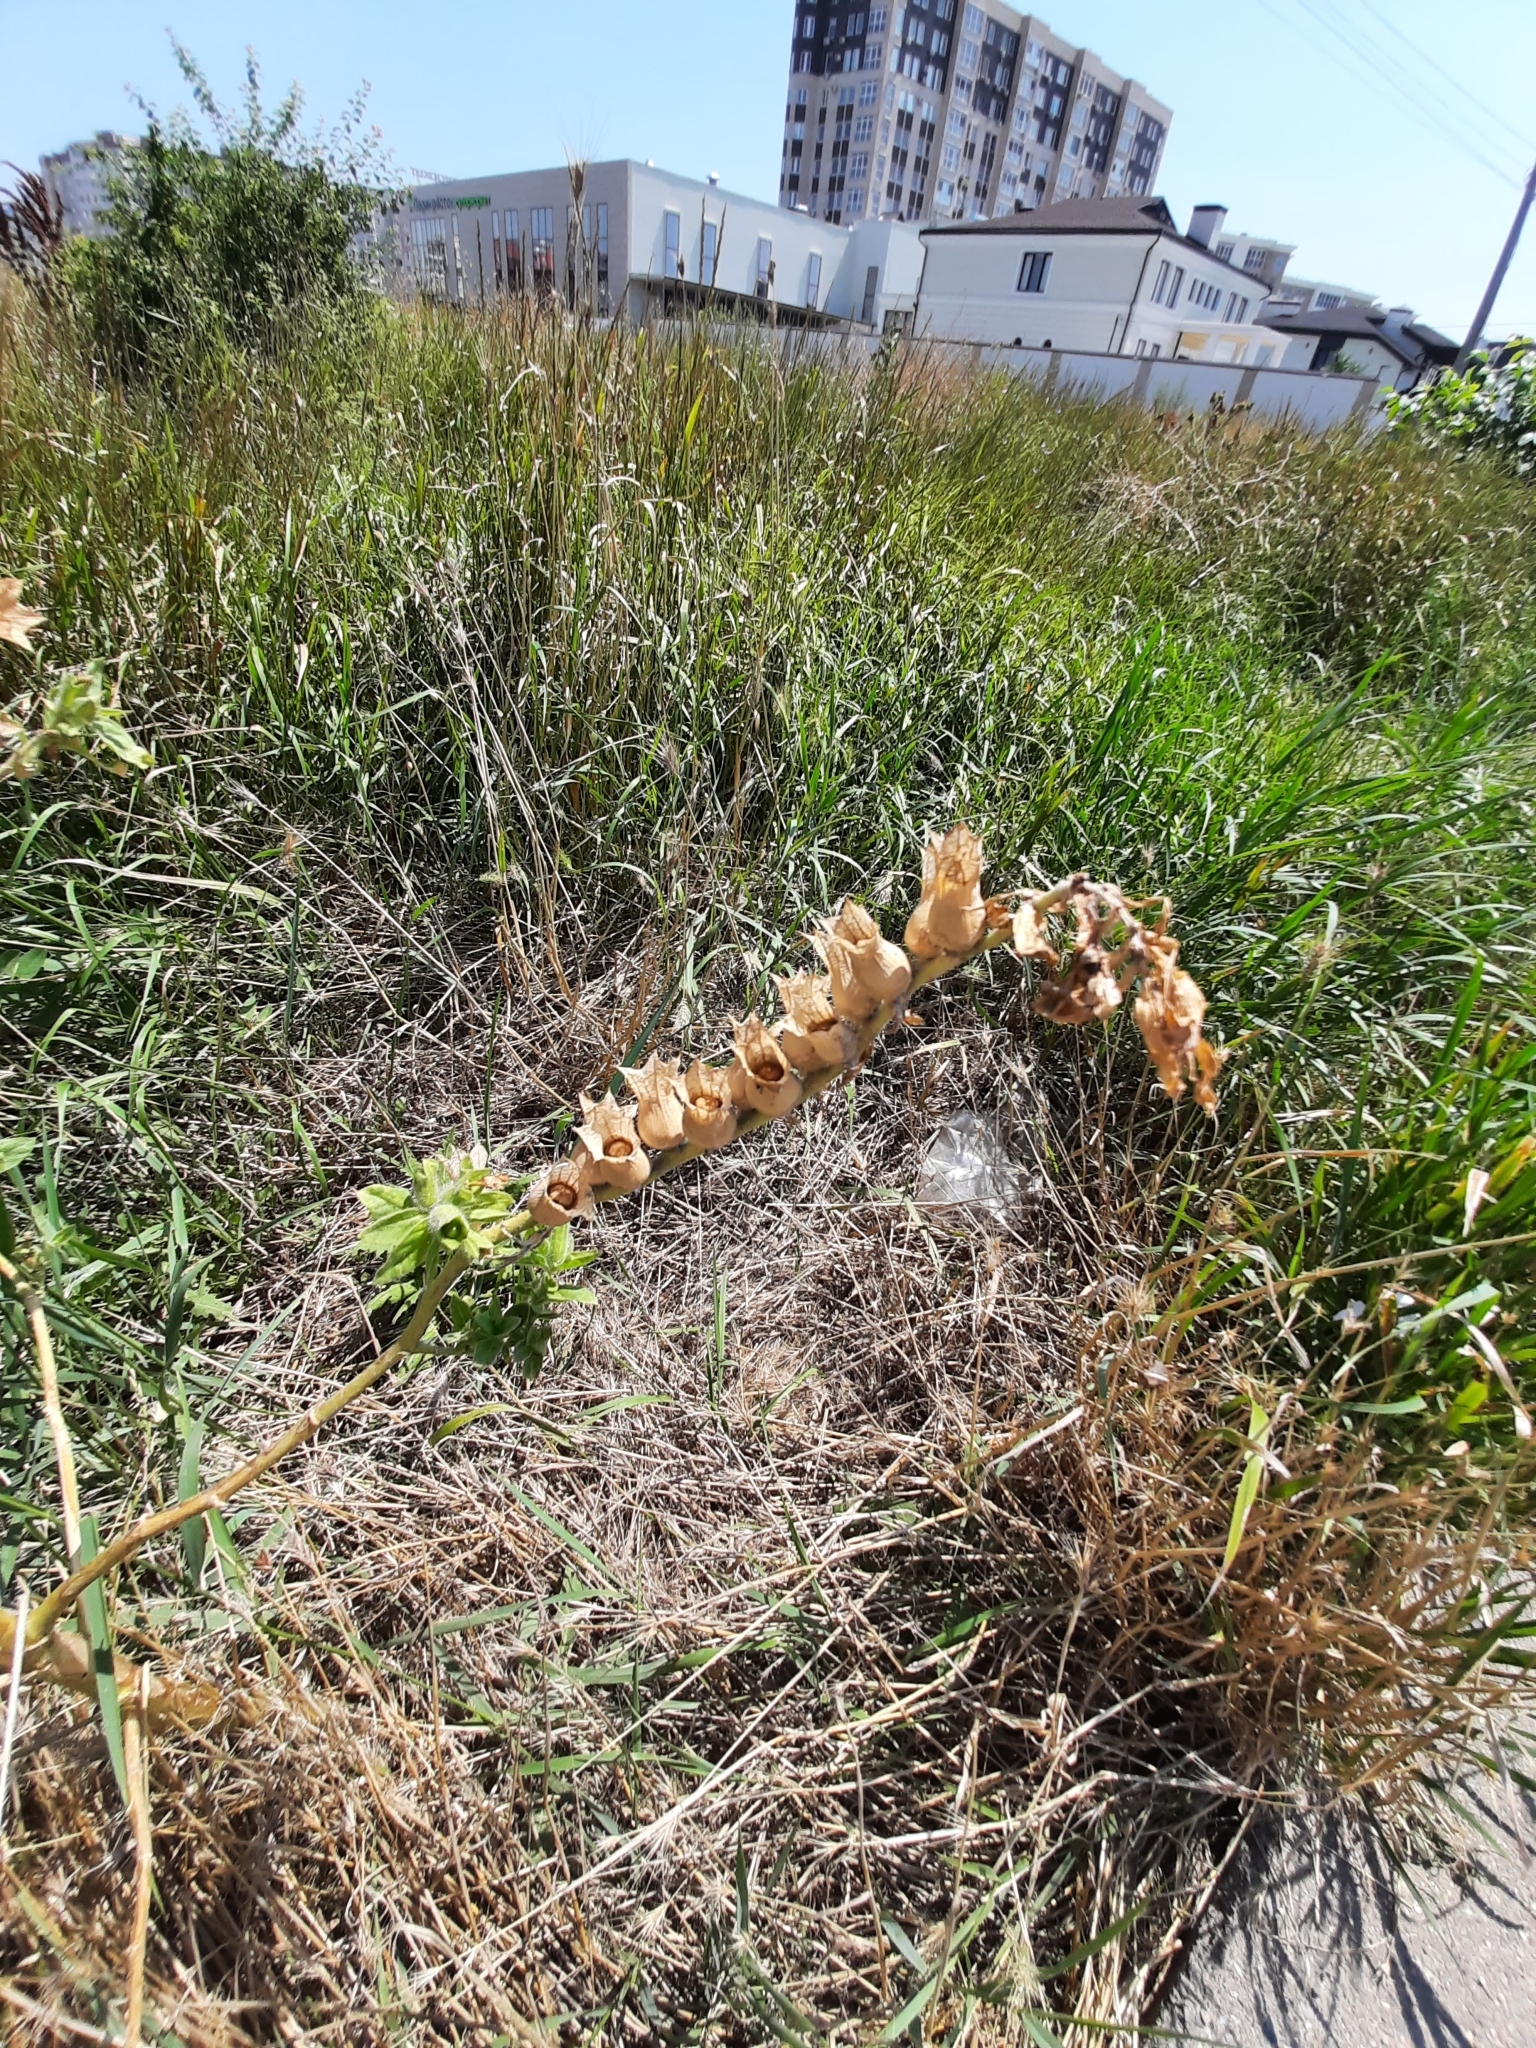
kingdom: Plantae
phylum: Tracheophyta
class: Magnoliopsida
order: Solanales
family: Solanaceae
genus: Hyoscyamus
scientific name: Hyoscyamus niger
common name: Henbane
